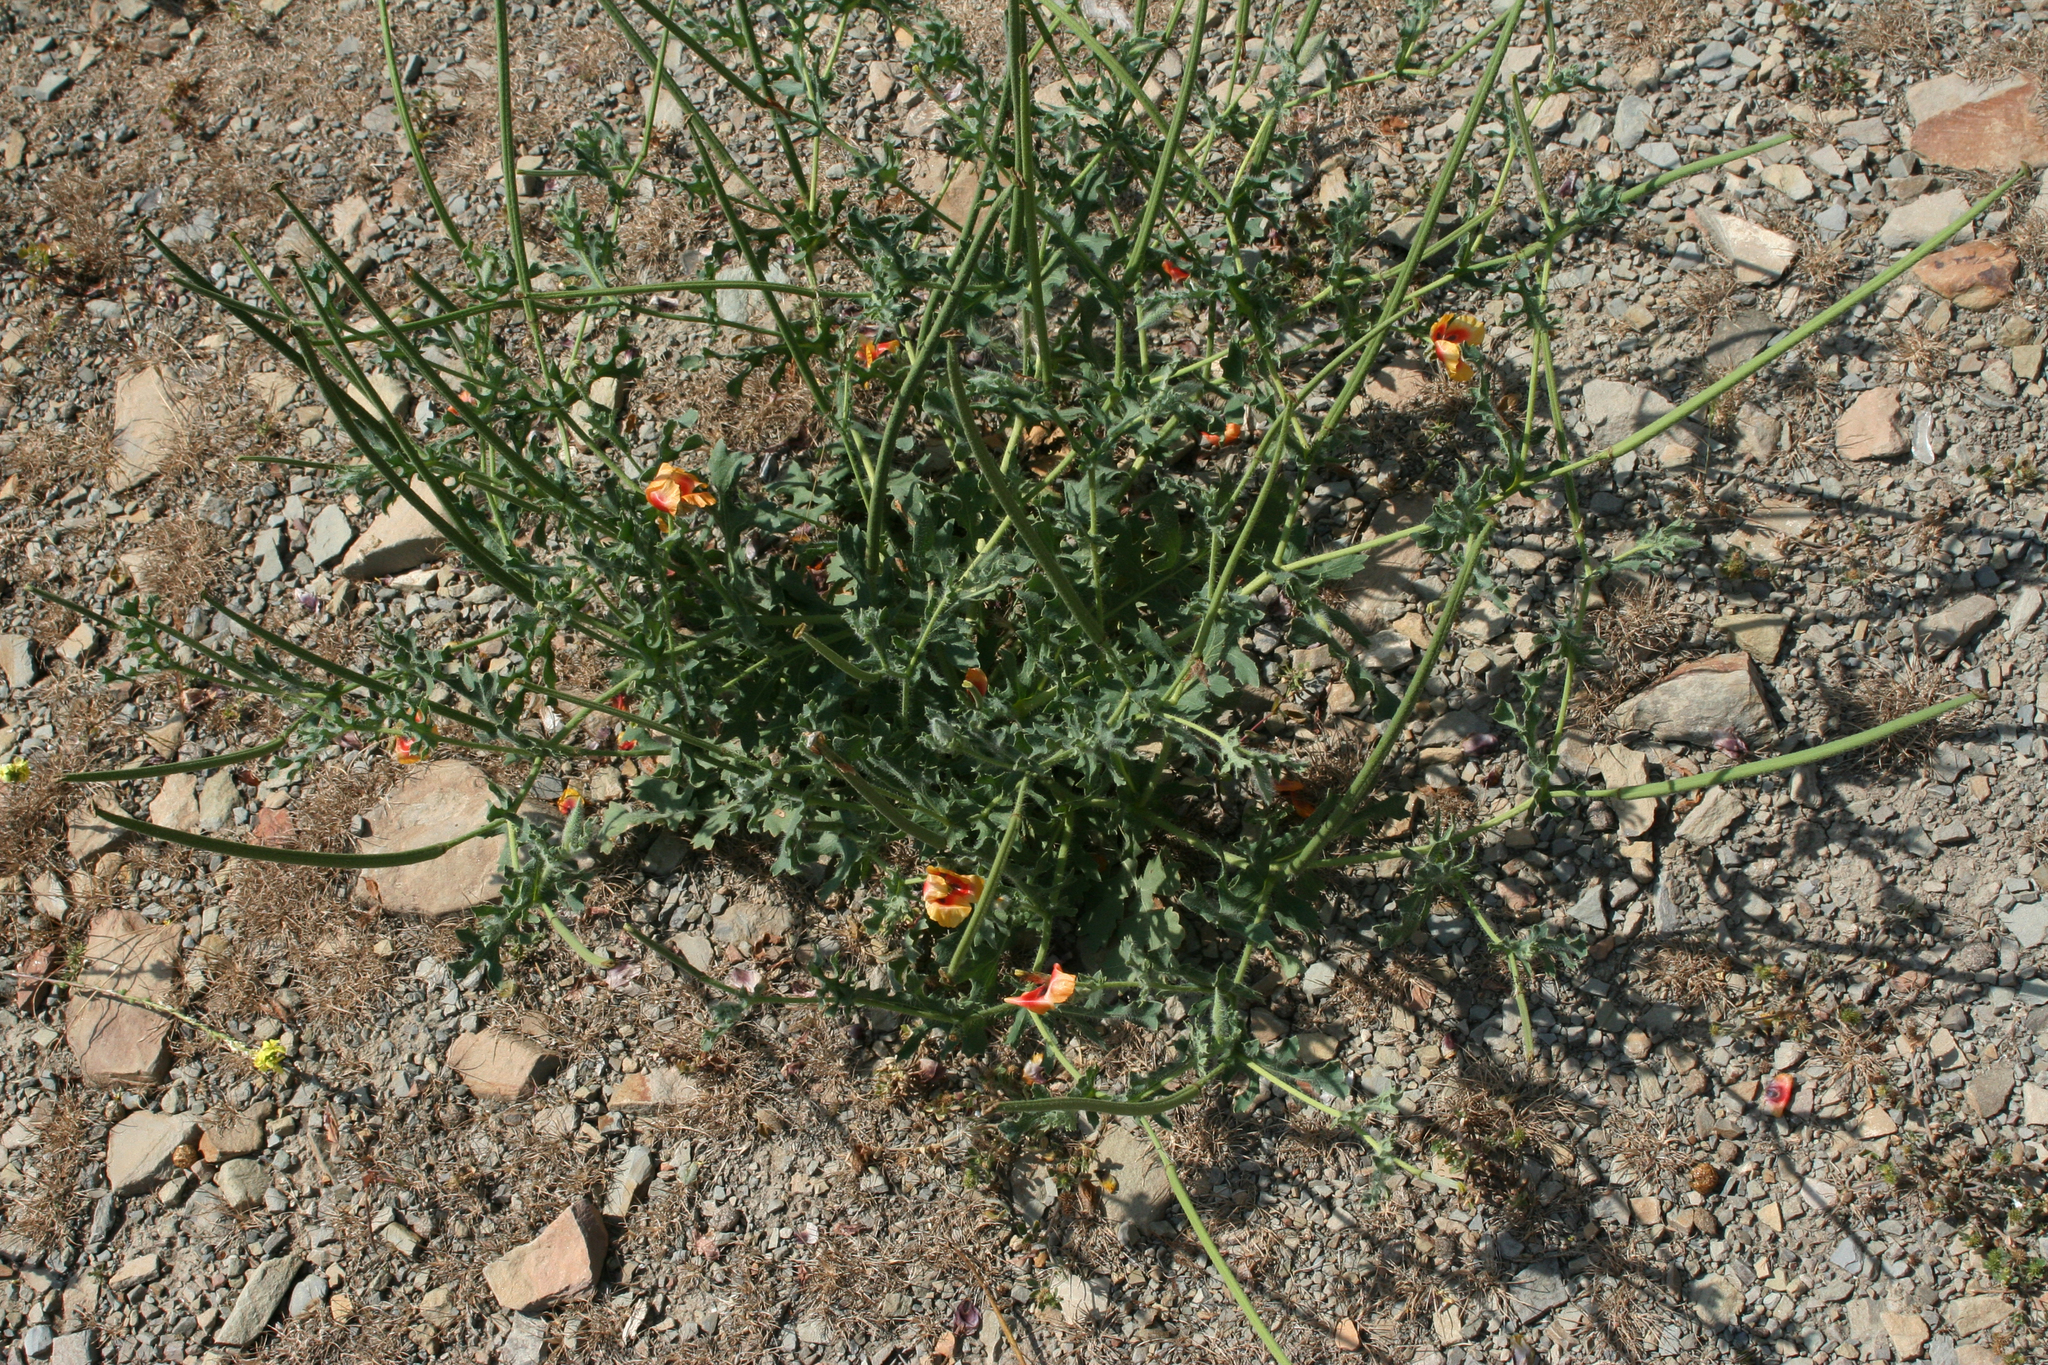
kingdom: Plantae
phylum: Tracheophyta
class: Magnoliopsida
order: Ranunculales
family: Papaveraceae
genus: Glaucium
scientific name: Glaucium corniculatum
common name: Red horned-poppy
